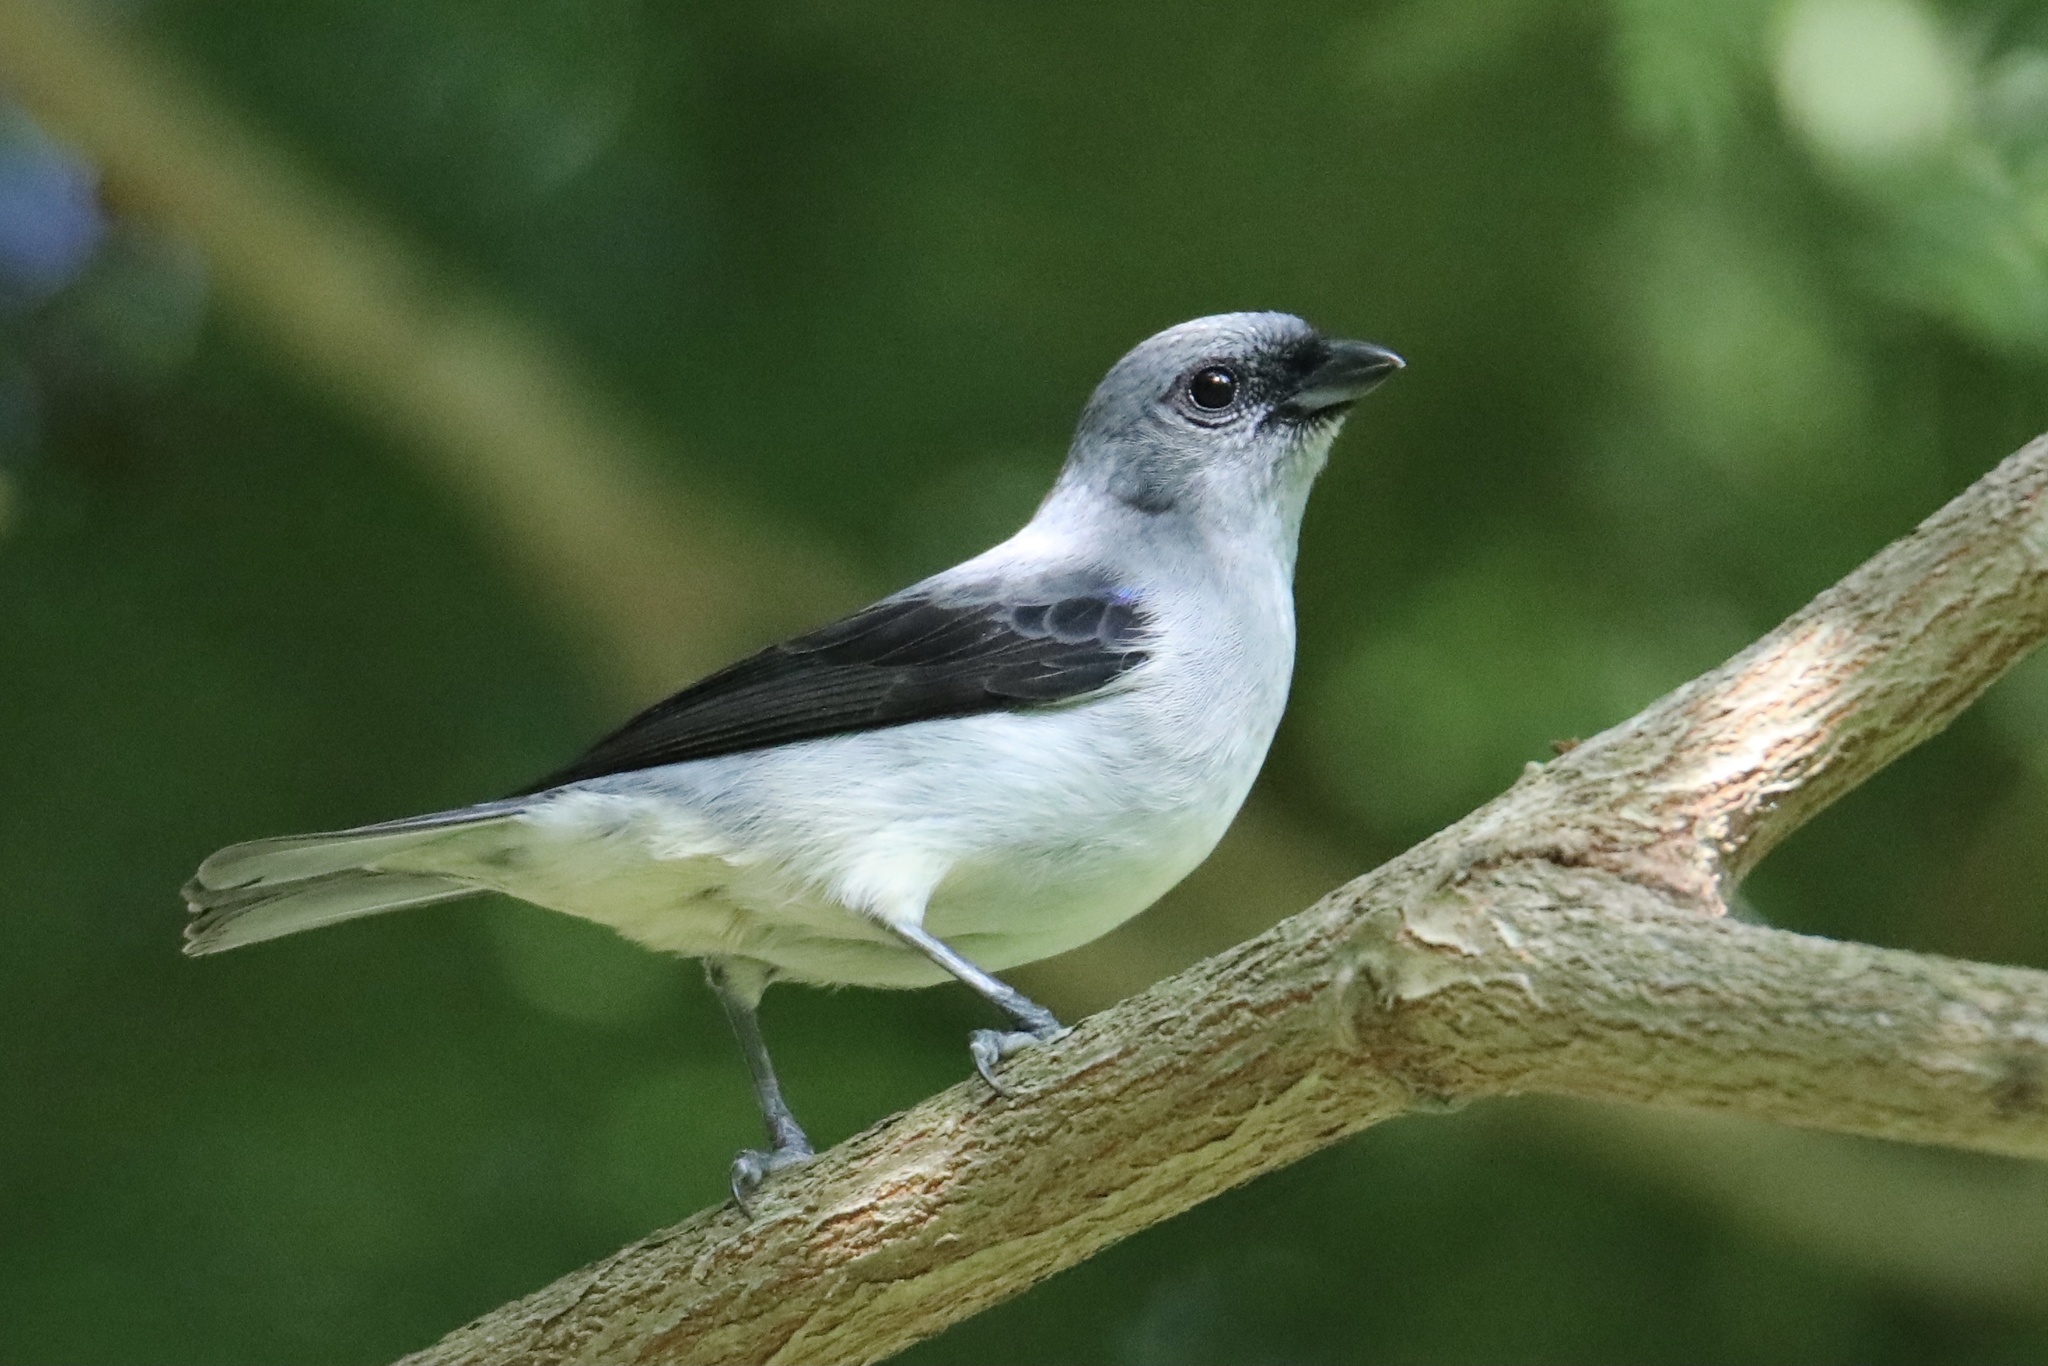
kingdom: Animalia
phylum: Chordata
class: Aves
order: Passeriformes
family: Thraupidae
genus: Tangara
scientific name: Tangara inornata
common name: Plain-colored tanager
